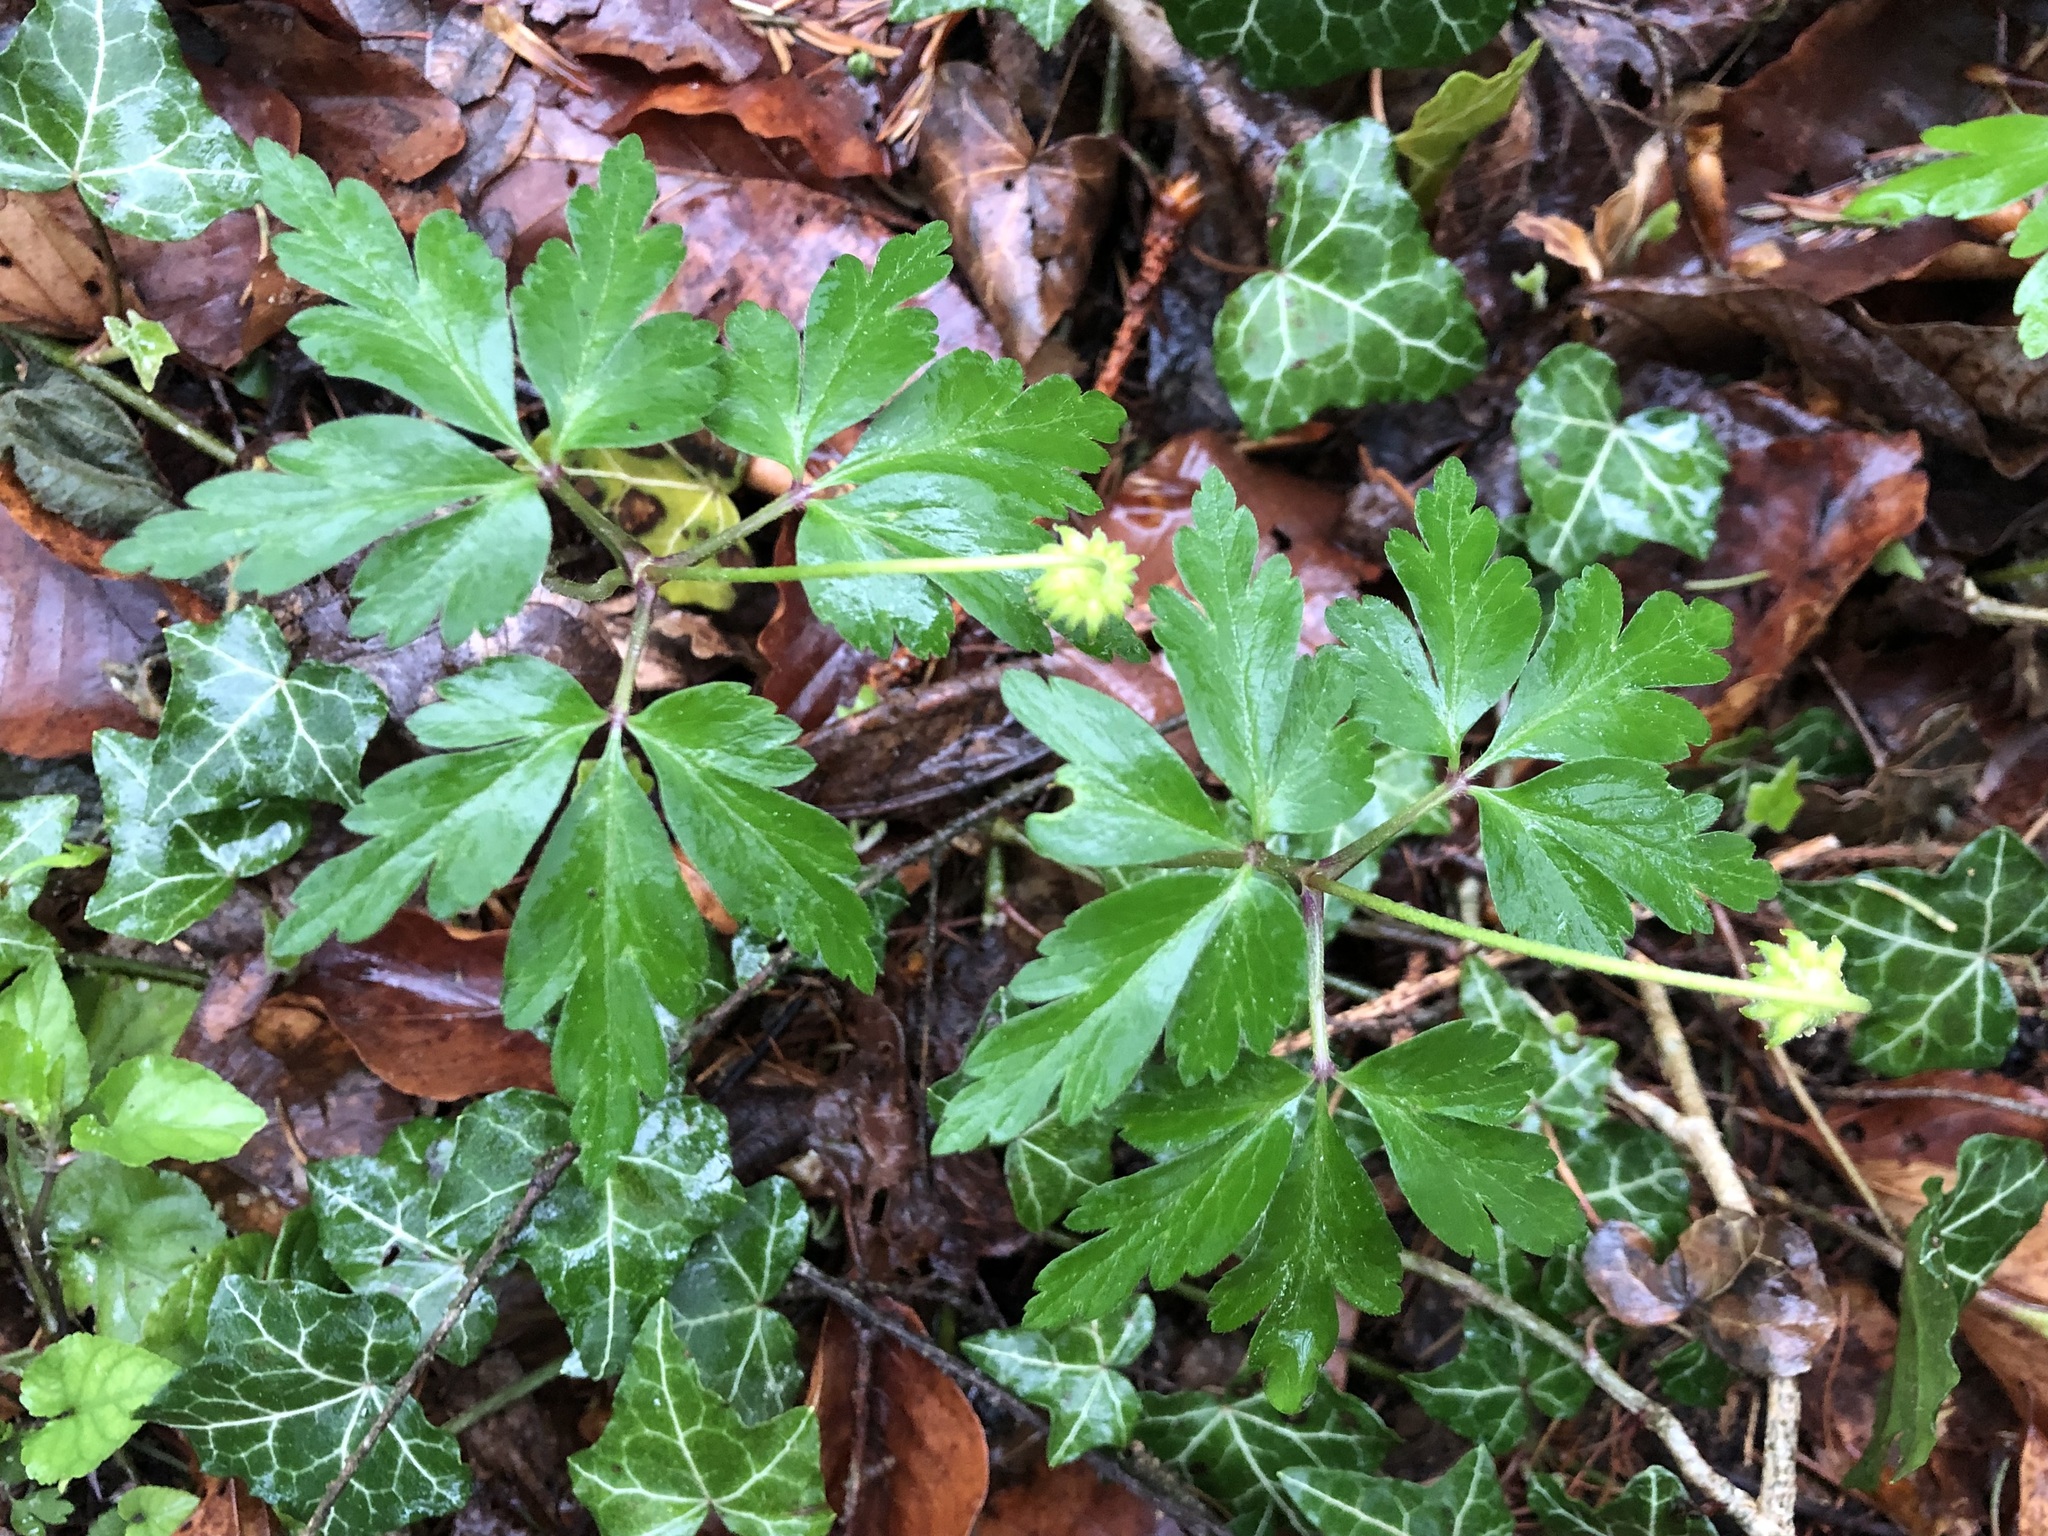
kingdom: Plantae
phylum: Tracheophyta
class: Magnoliopsida
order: Ranunculales
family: Ranunculaceae
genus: Anemone
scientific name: Anemone nemorosa
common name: Wood anemone
